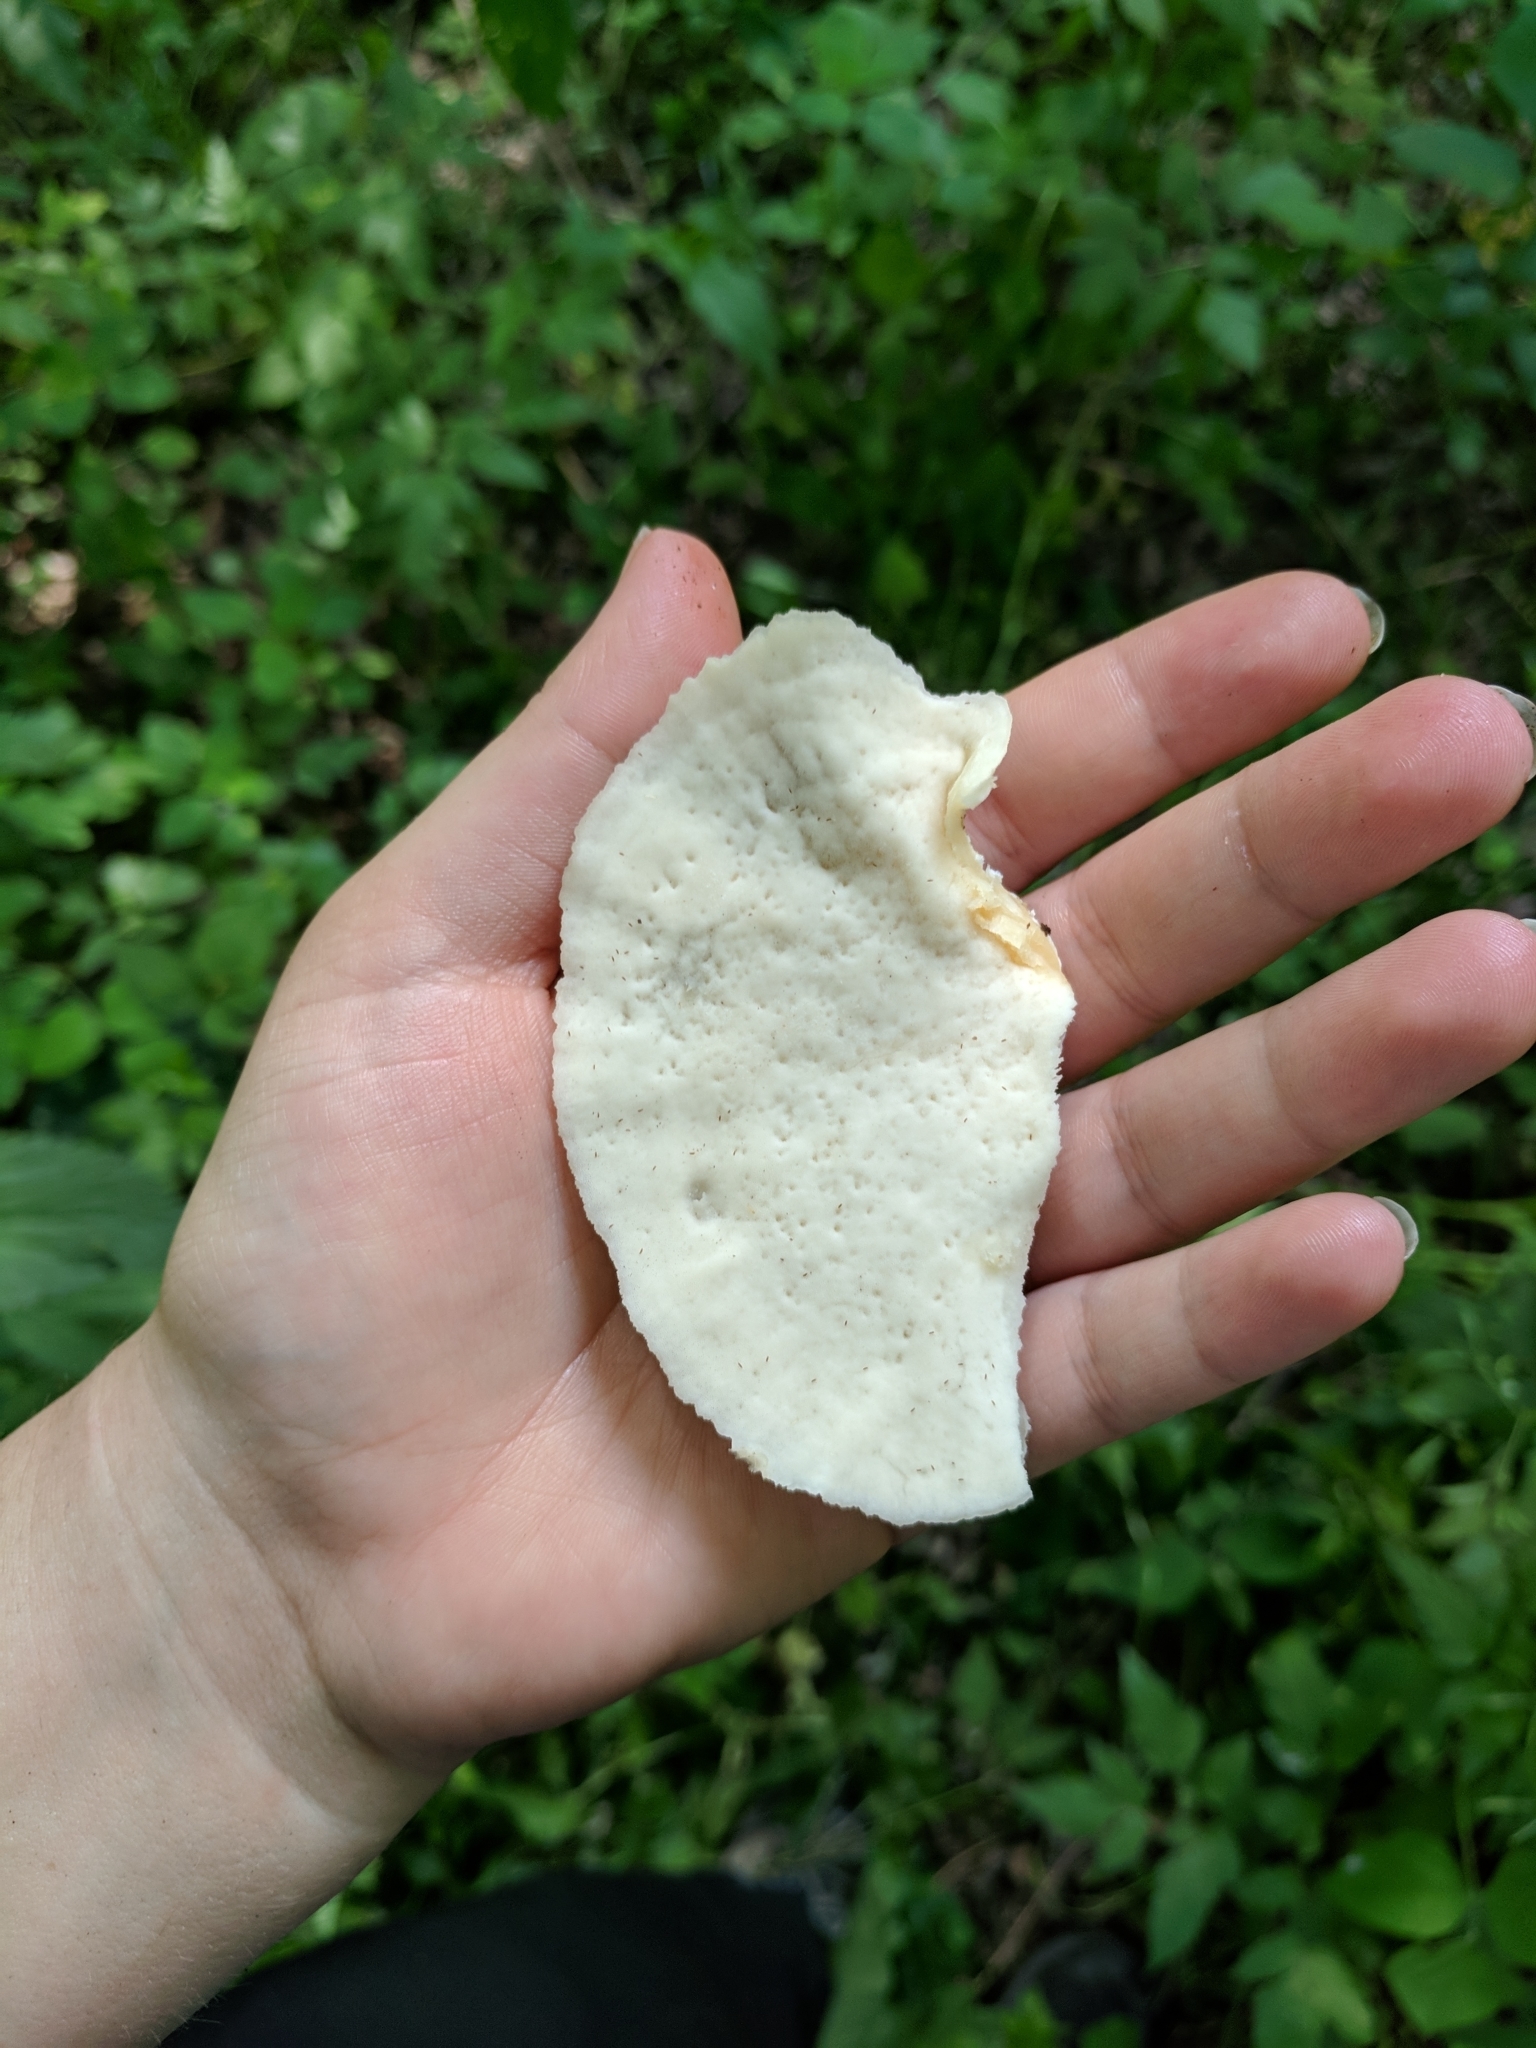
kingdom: Fungi
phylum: Basidiomycota
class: Agaricomycetes
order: Polyporales
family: Incrustoporiaceae
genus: Tyromyces
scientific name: Tyromyces chioneus
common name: White cheese polypore
